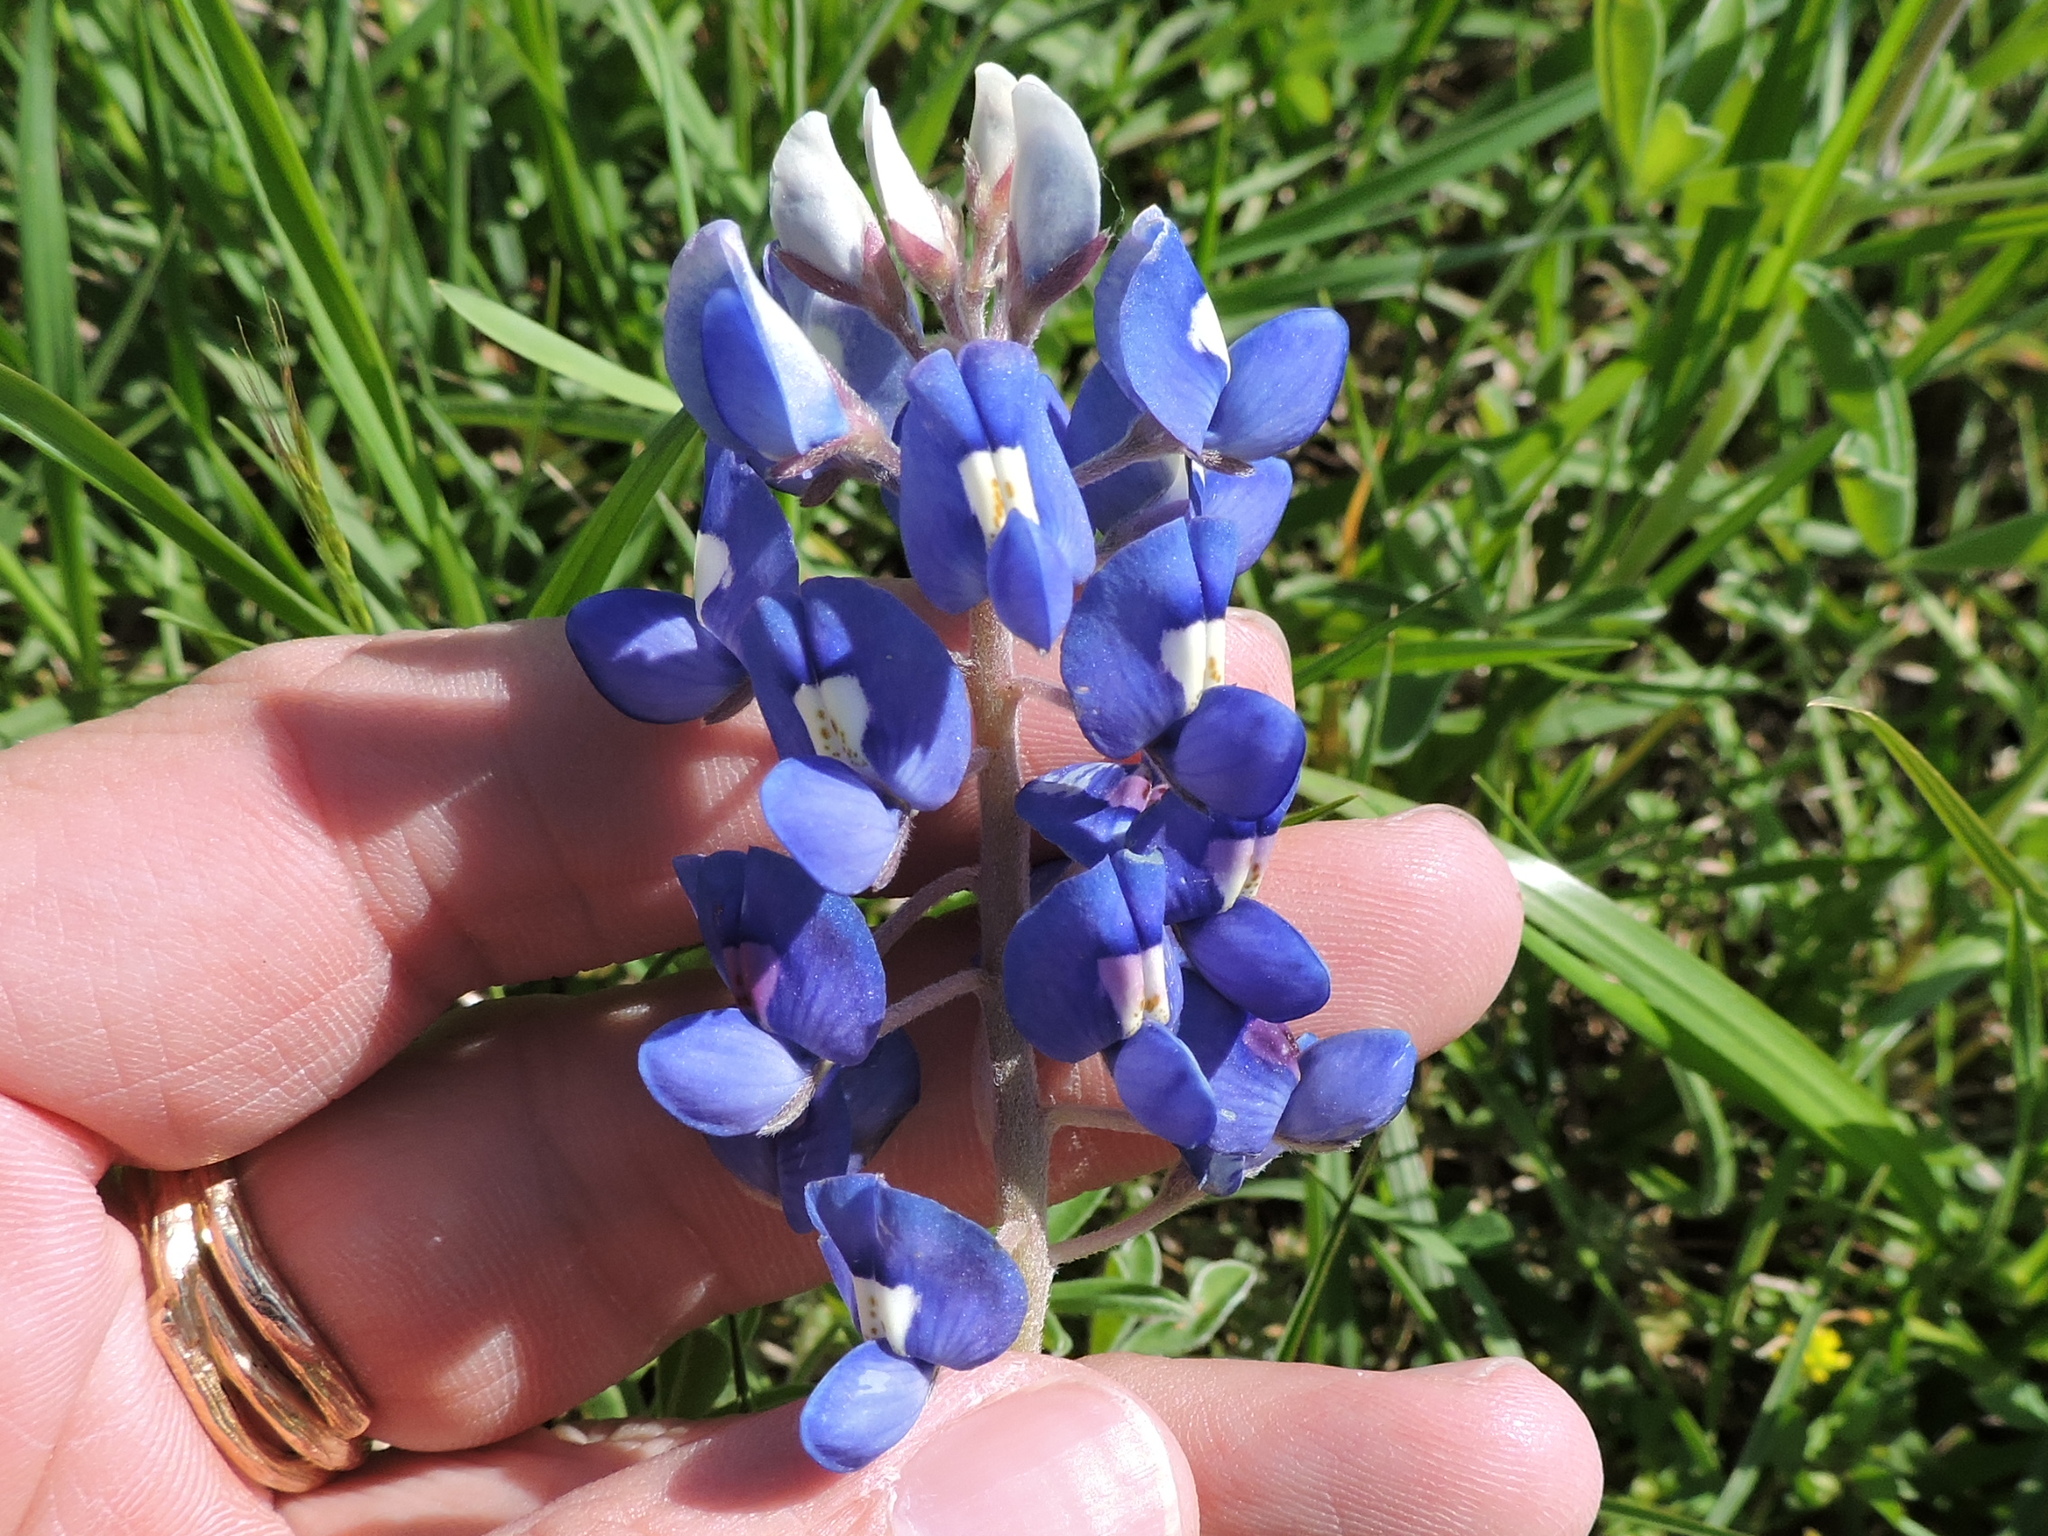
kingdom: Plantae
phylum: Tracheophyta
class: Magnoliopsida
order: Fabales
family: Fabaceae
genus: Lupinus
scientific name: Lupinus texensis
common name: Texas bluebonnet
